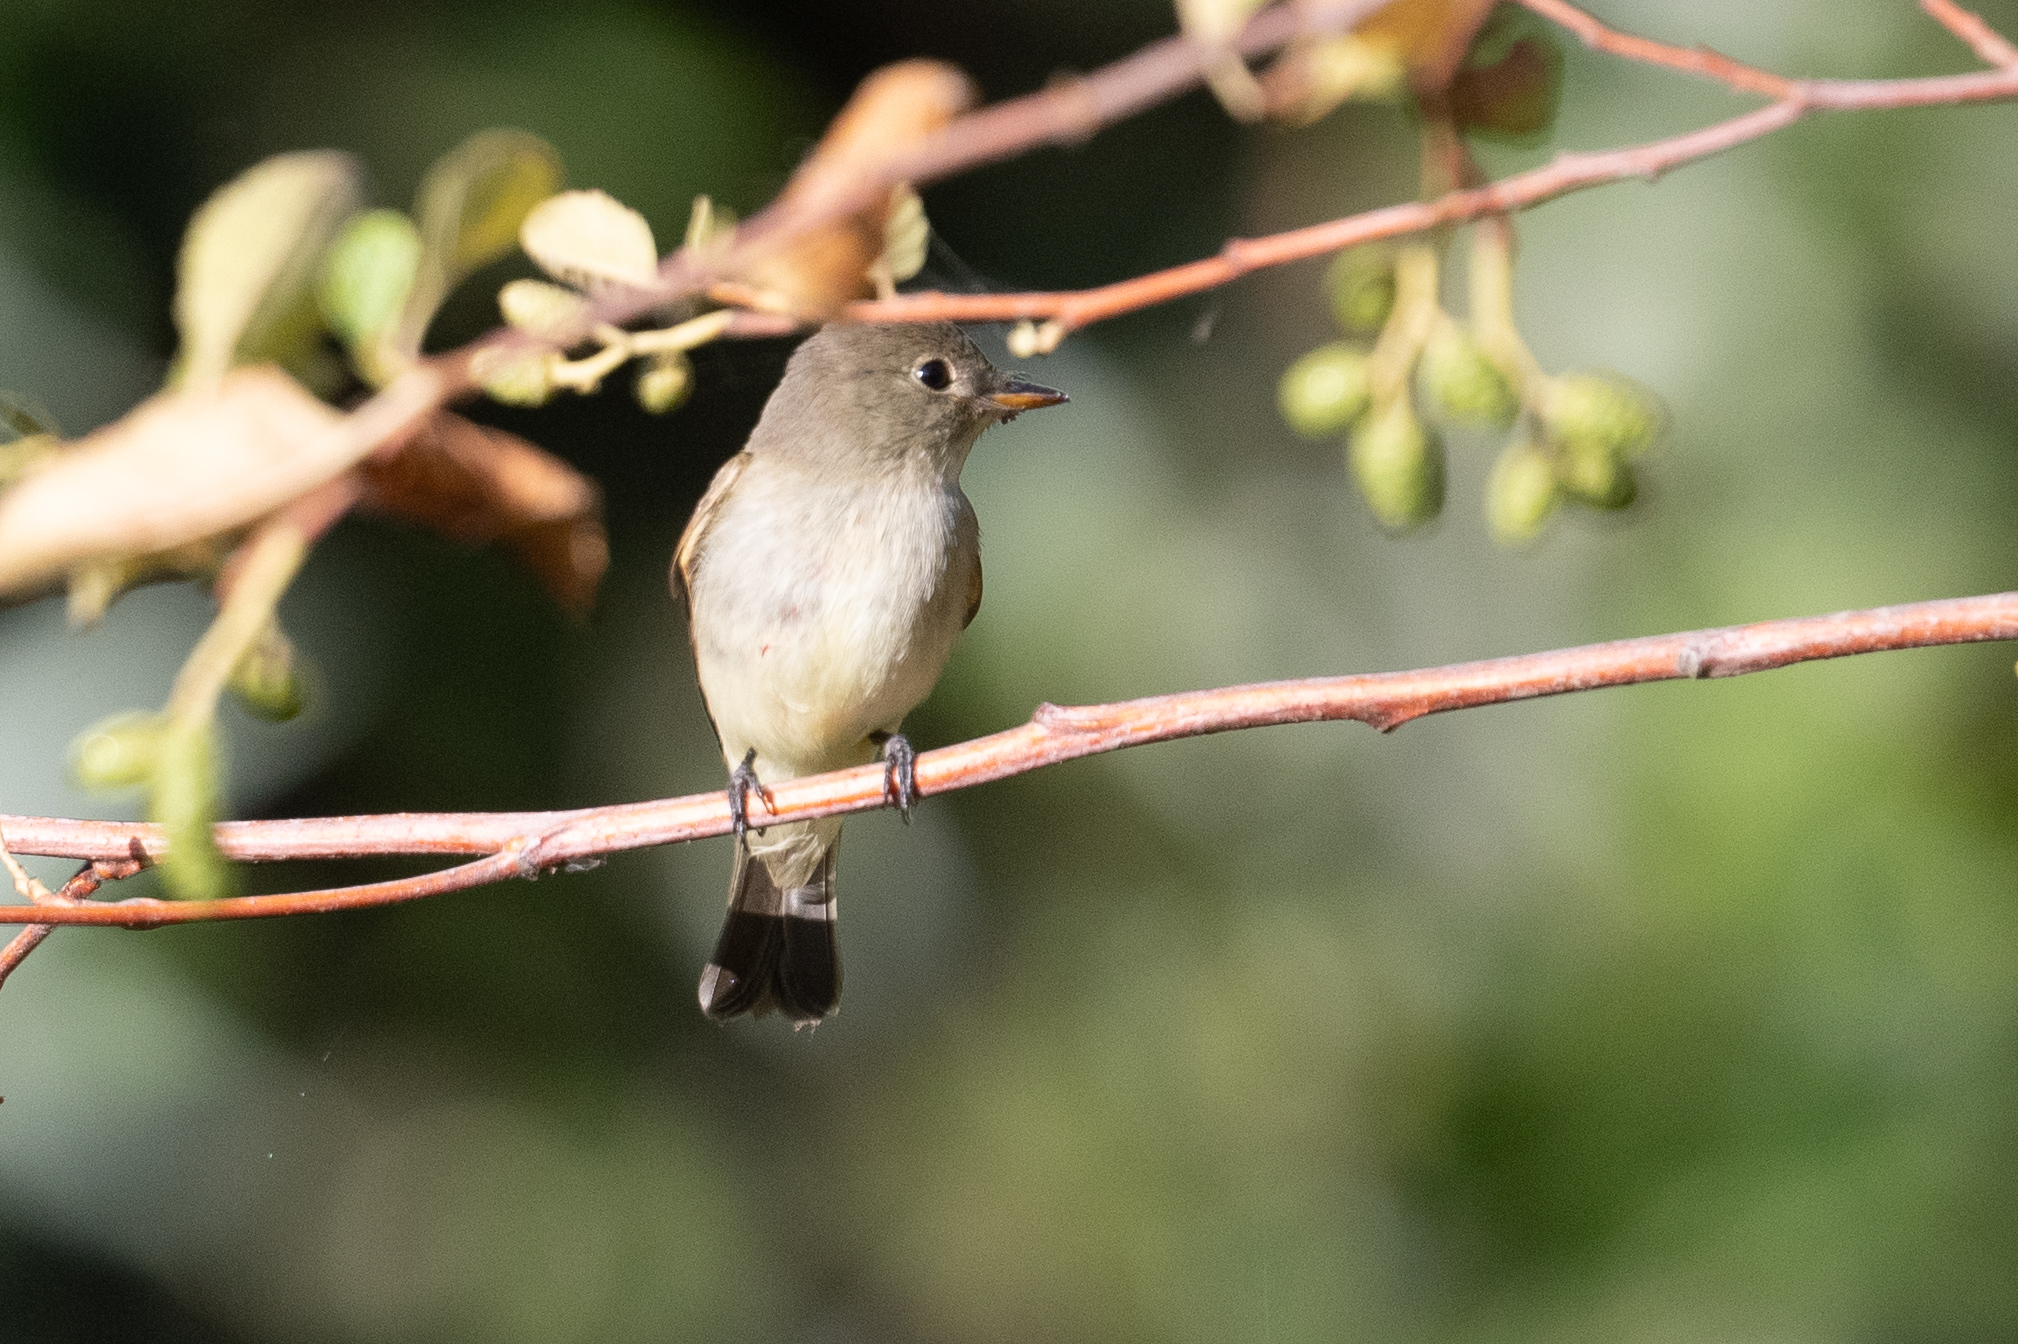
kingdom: Animalia
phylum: Chordata
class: Aves
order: Passeriformes
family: Tyrannidae
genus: Empidonax
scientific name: Empidonax traillii
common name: Willow flycatcher
